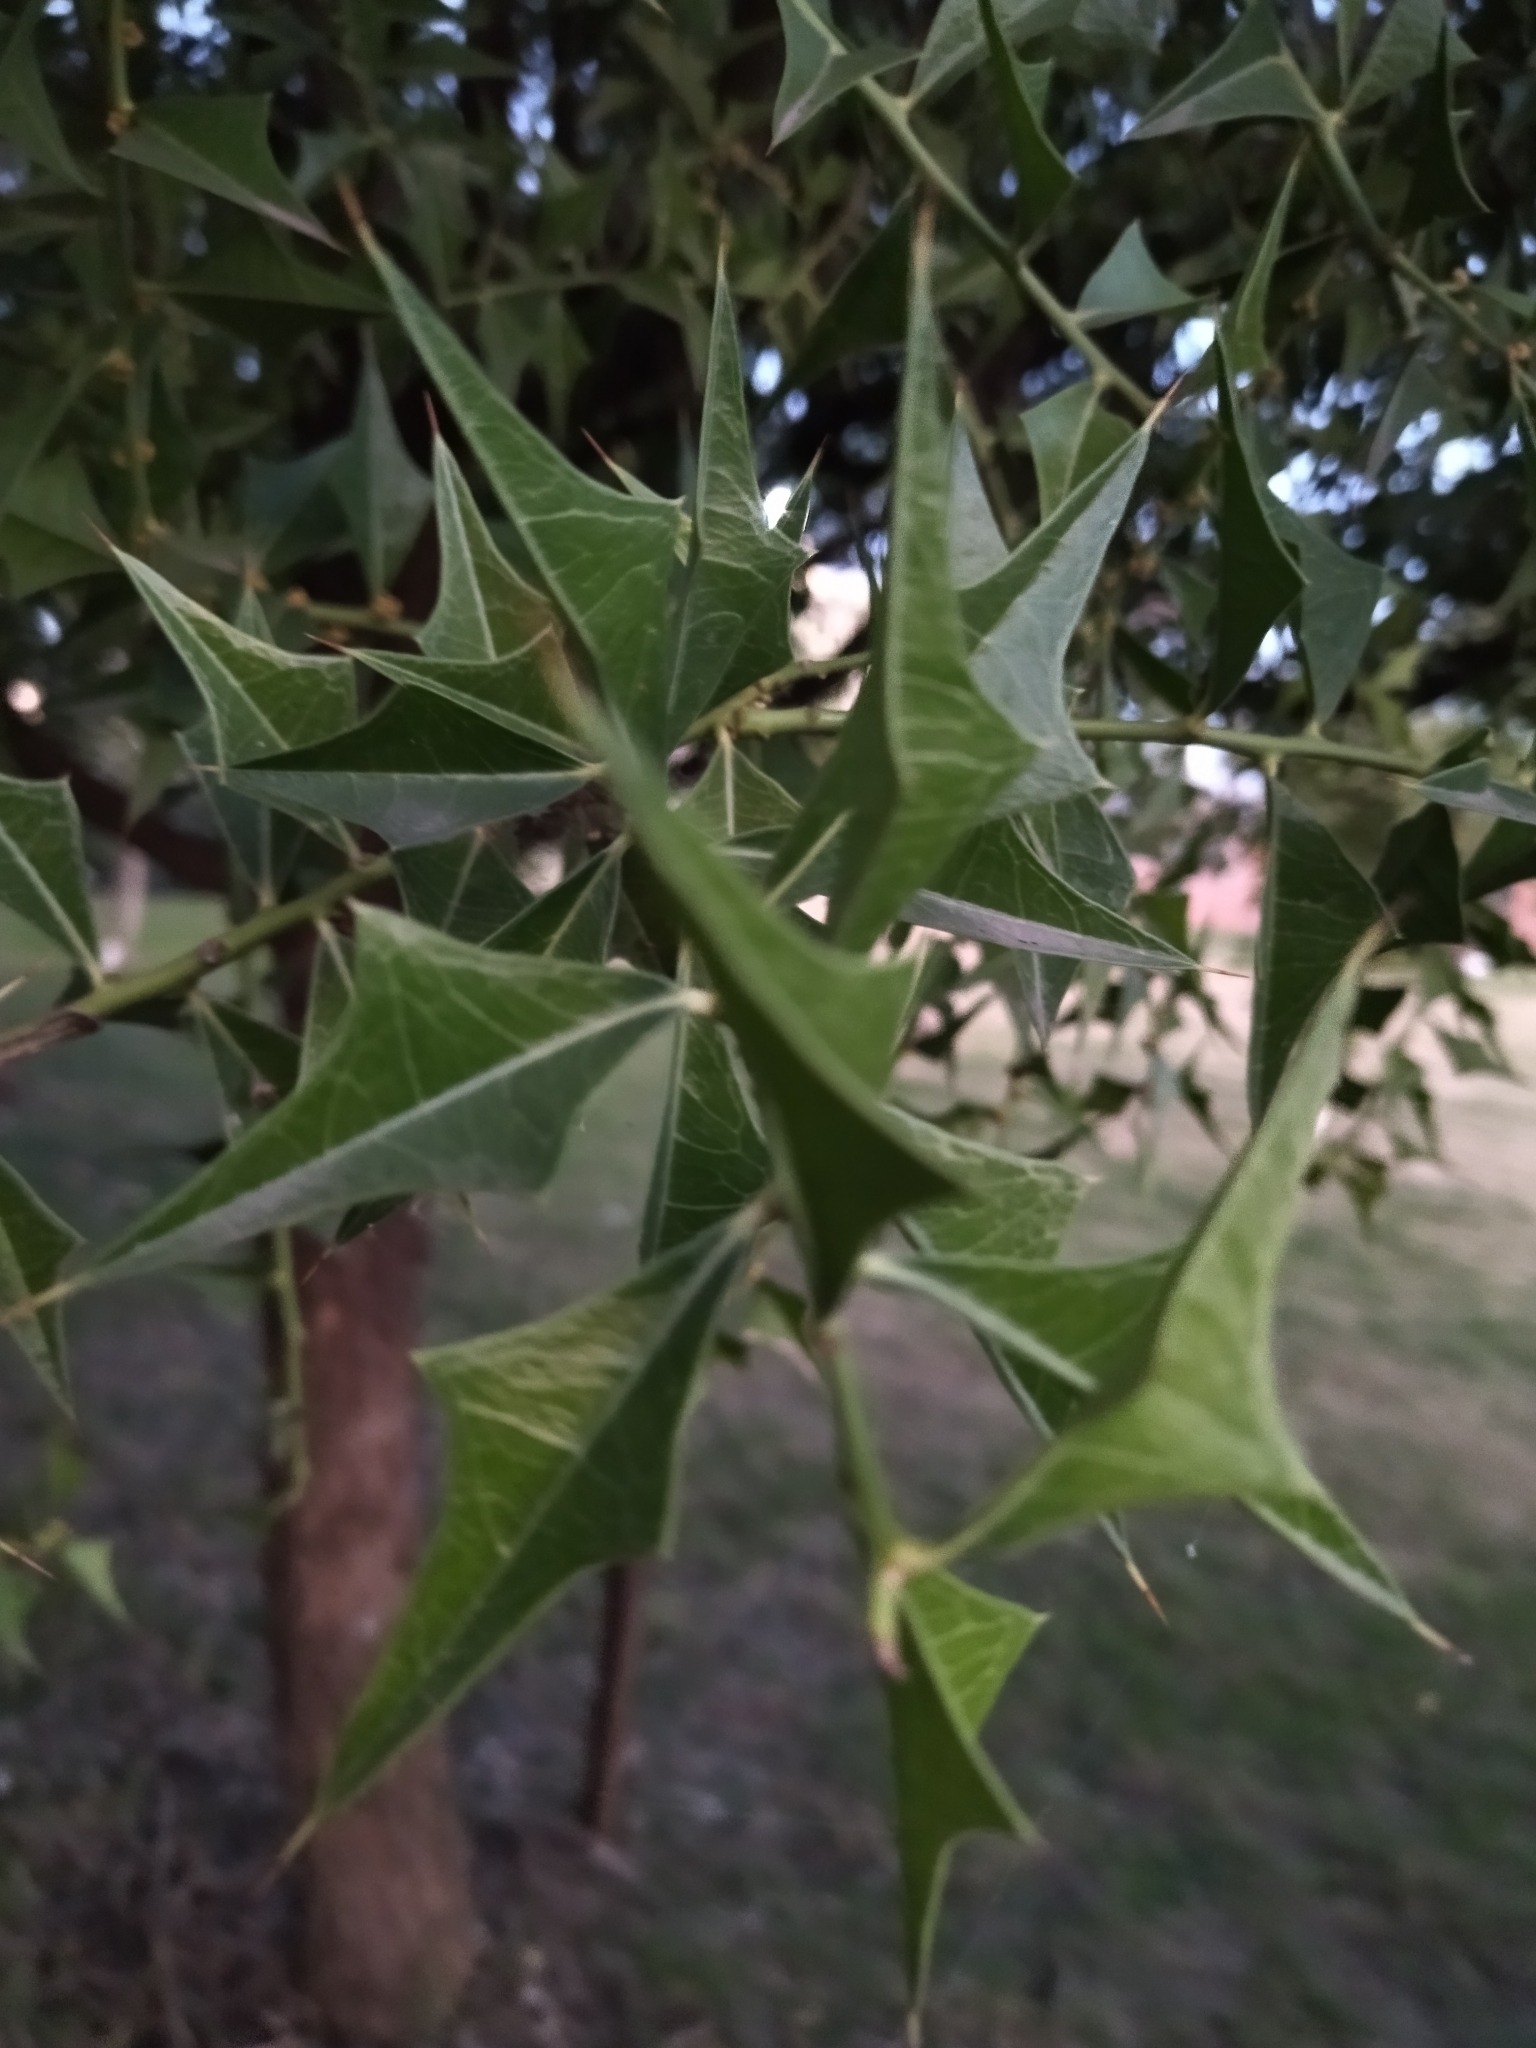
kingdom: Plantae
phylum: Tracheophyta
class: Magnoliopsida
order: Santalales
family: Cervantesiaceae
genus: Jodina
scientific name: Jodina rhombifolia
